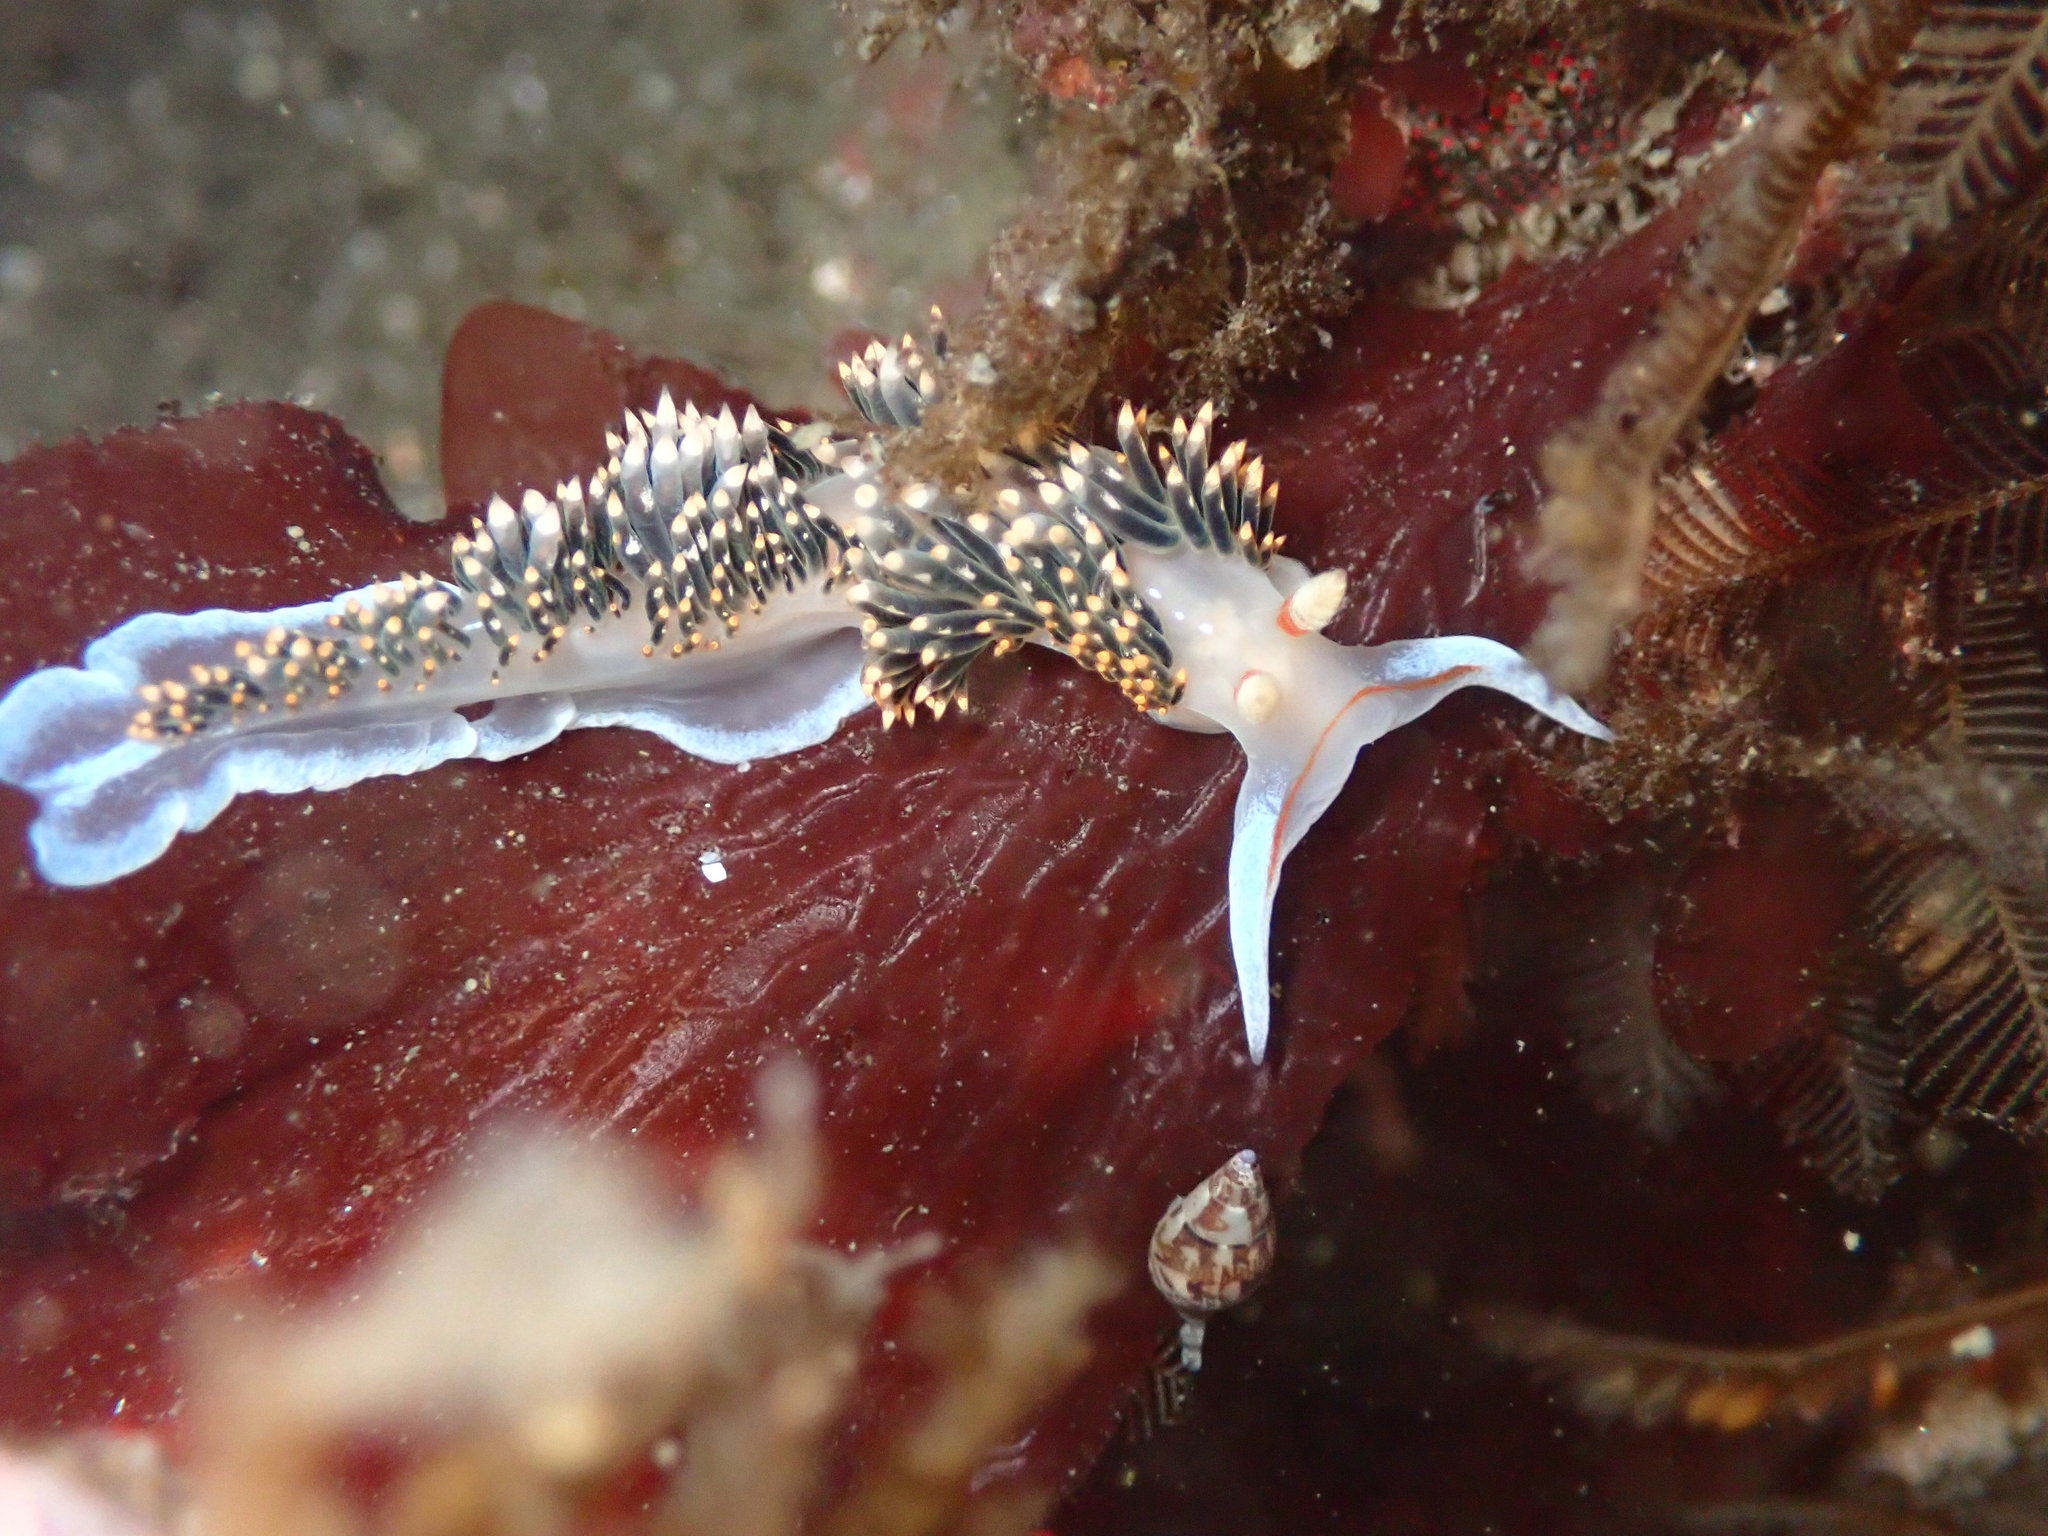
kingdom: Animalia
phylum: Mollusca
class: Gastropoda
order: Nudibranchia
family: Facelinidae
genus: Phidiana
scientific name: Phidiana hiltoni
